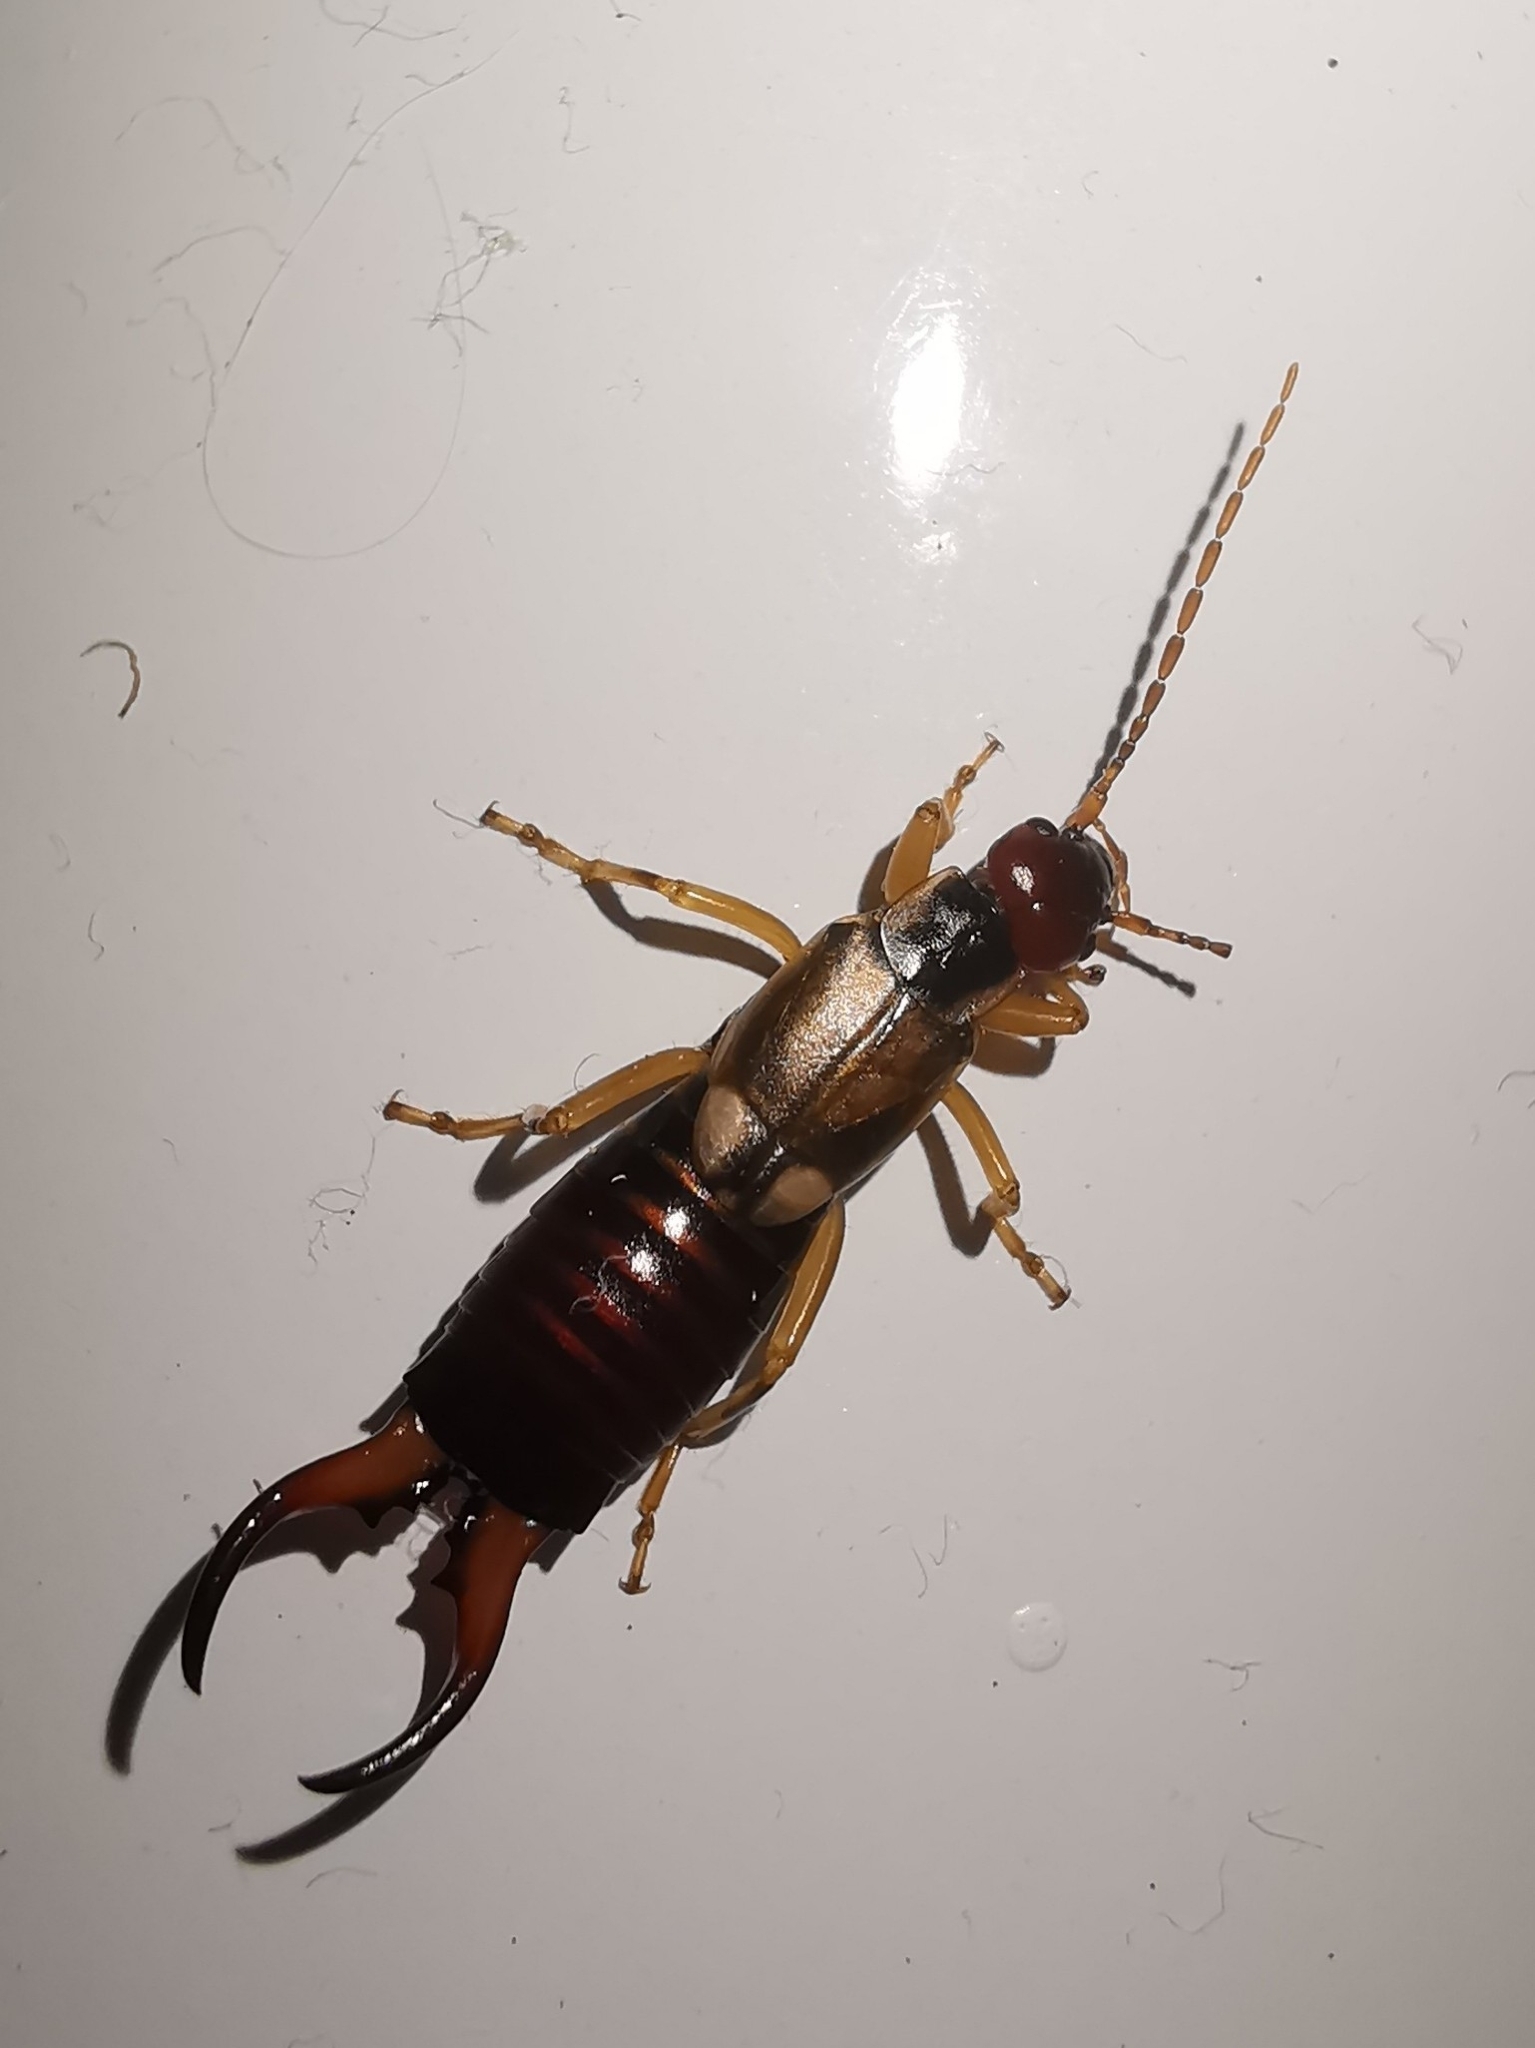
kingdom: Animalia
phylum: Arthropoda
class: Insecta
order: Dermaptera
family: Forficulidae
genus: Forficula
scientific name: Forficula
